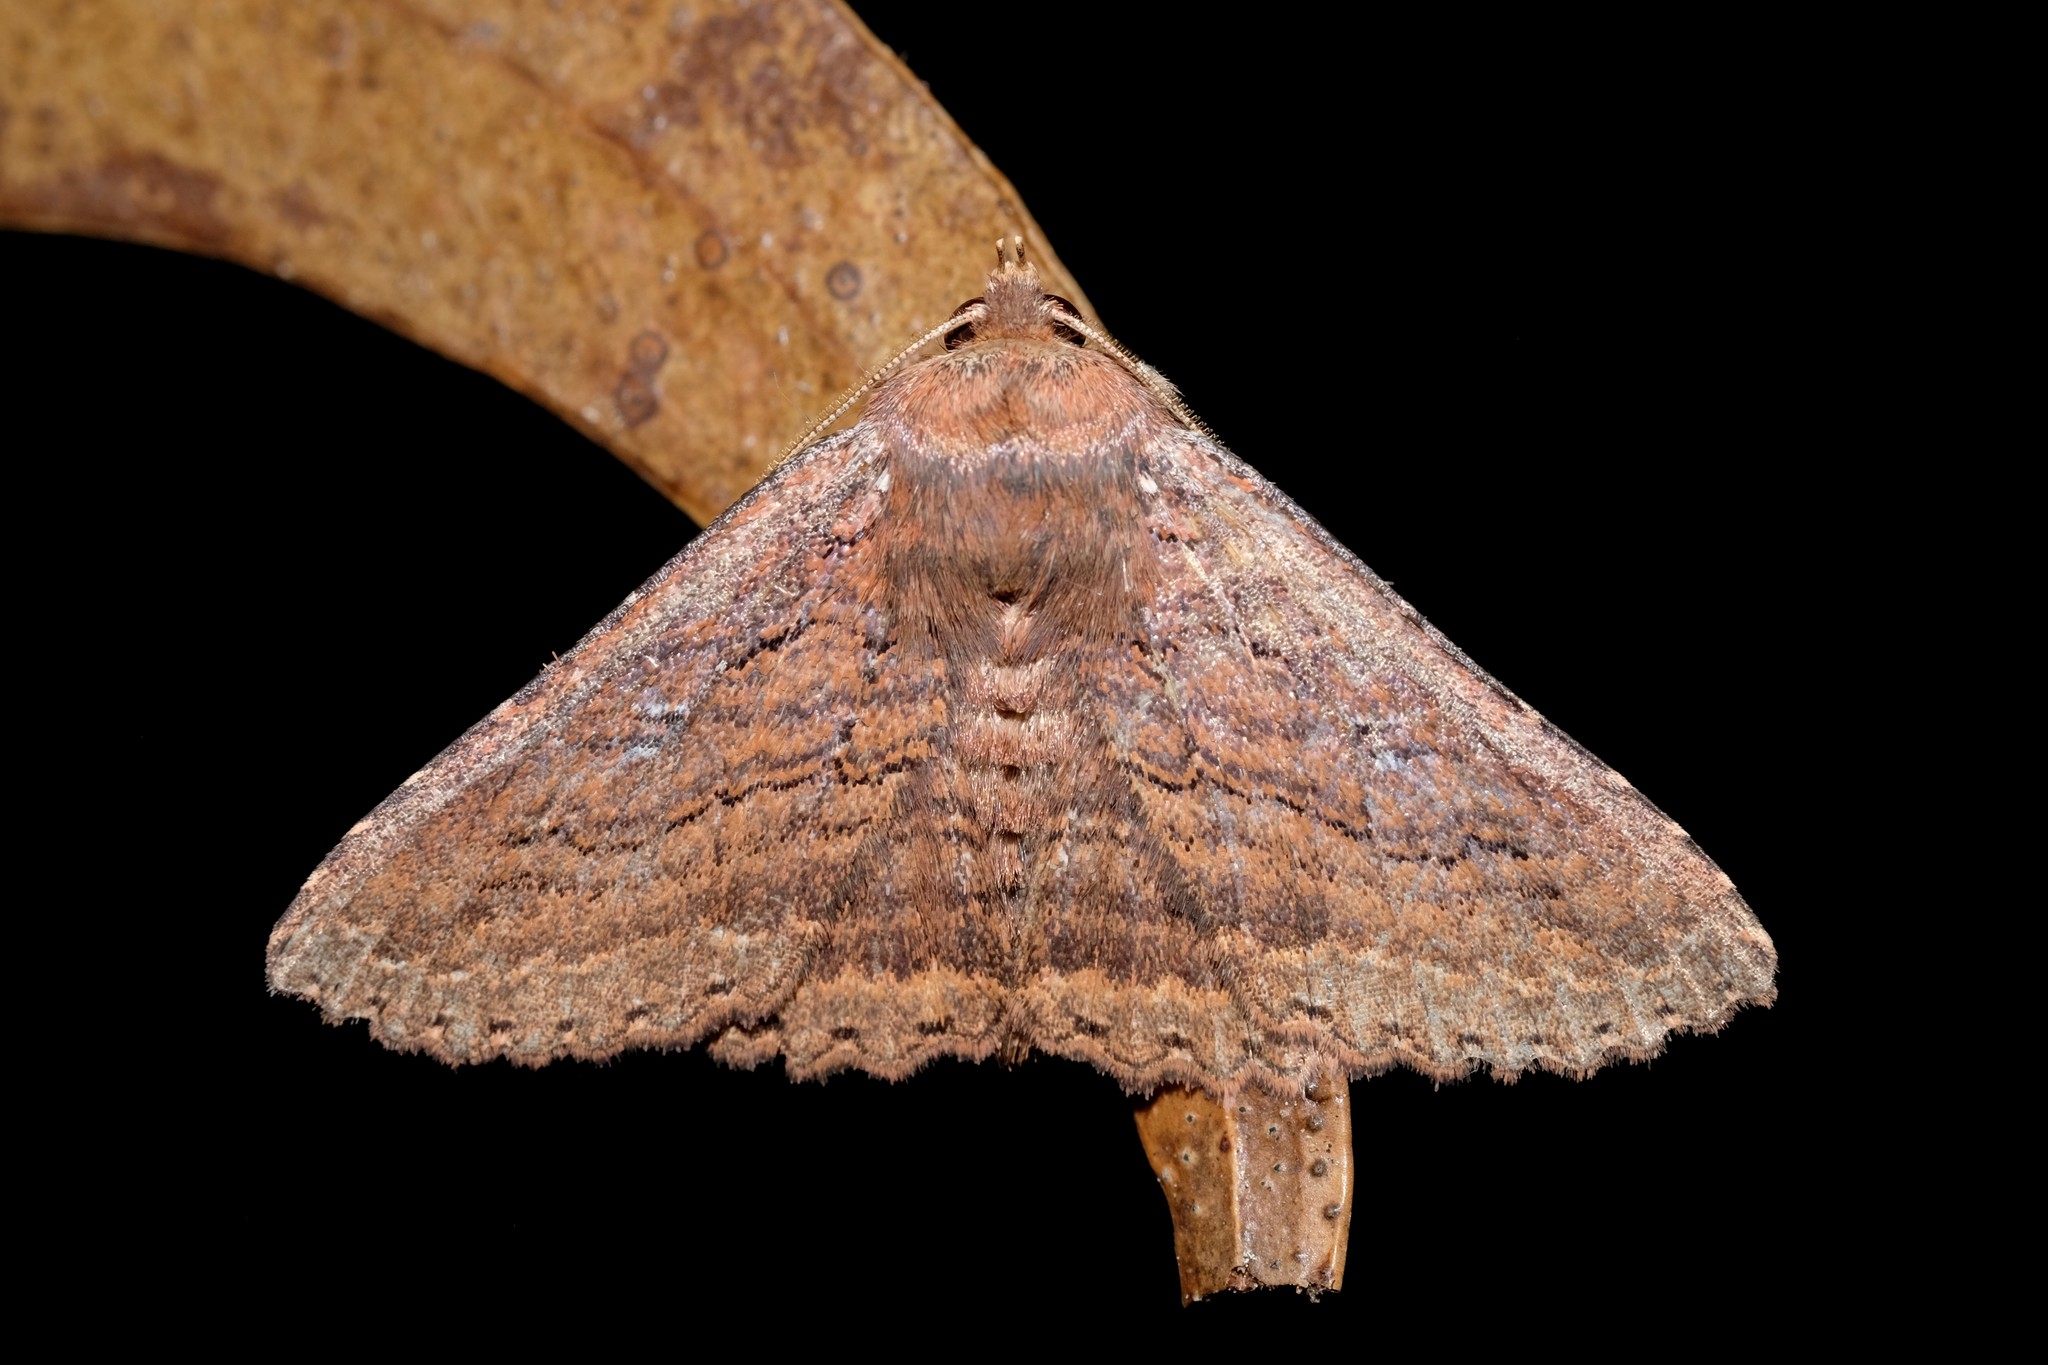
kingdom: Animalia
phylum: Arthropoda
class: Insecta
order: Lepidoptera
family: Erebidae
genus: Praxis
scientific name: Praxis porphyretica
